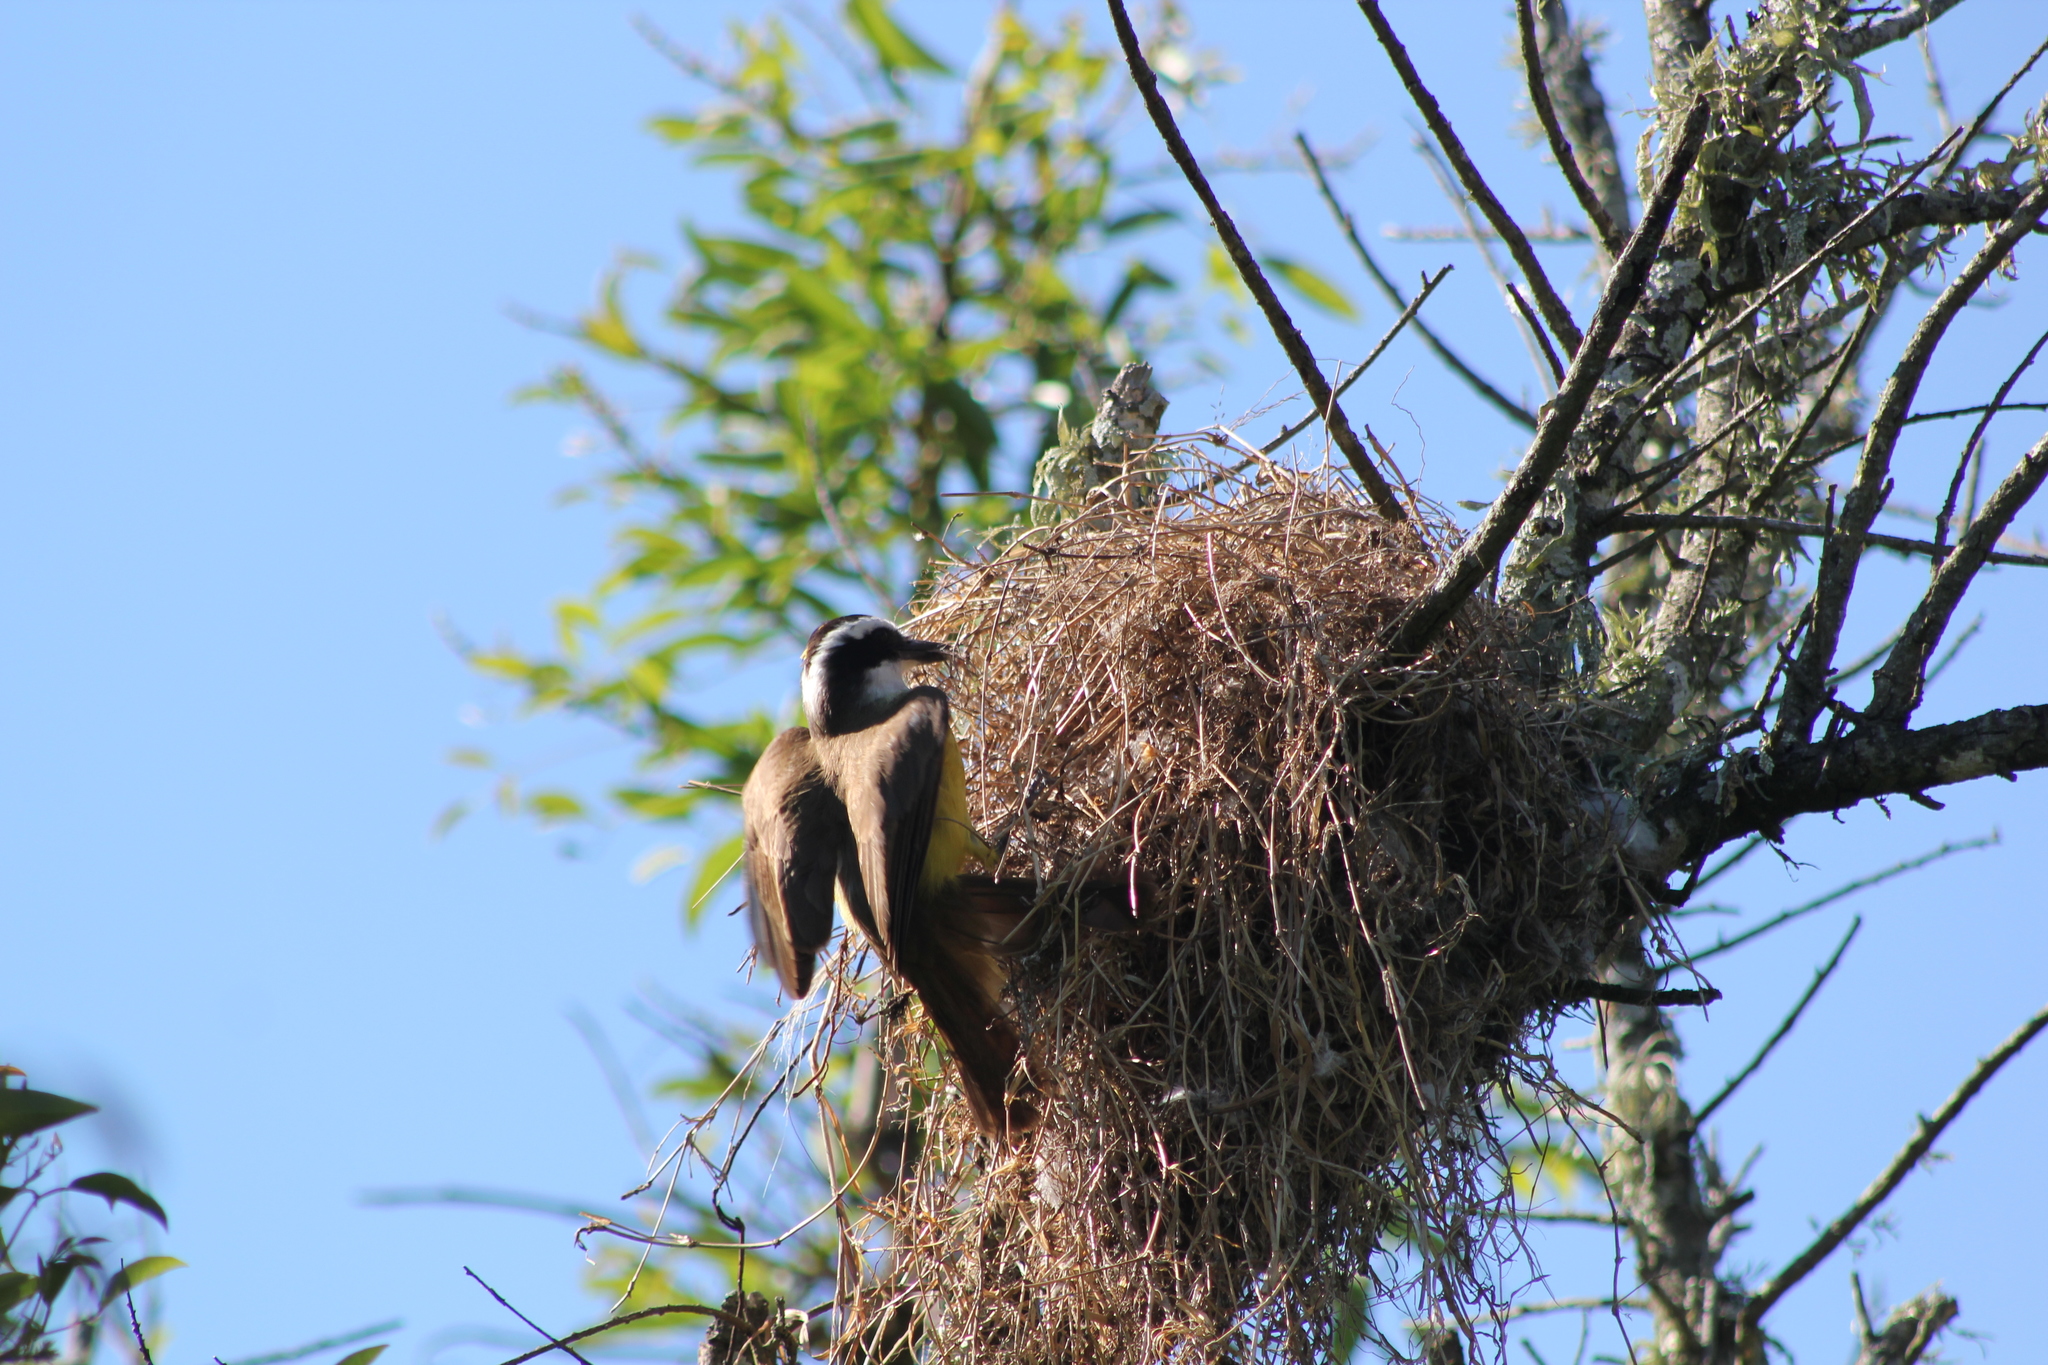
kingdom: Animalia
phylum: Chordata
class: Aves
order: Passeriformes
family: Tyrannidae
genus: Pitangus
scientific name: Pitangus sulphuratus
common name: Great kiskadee
